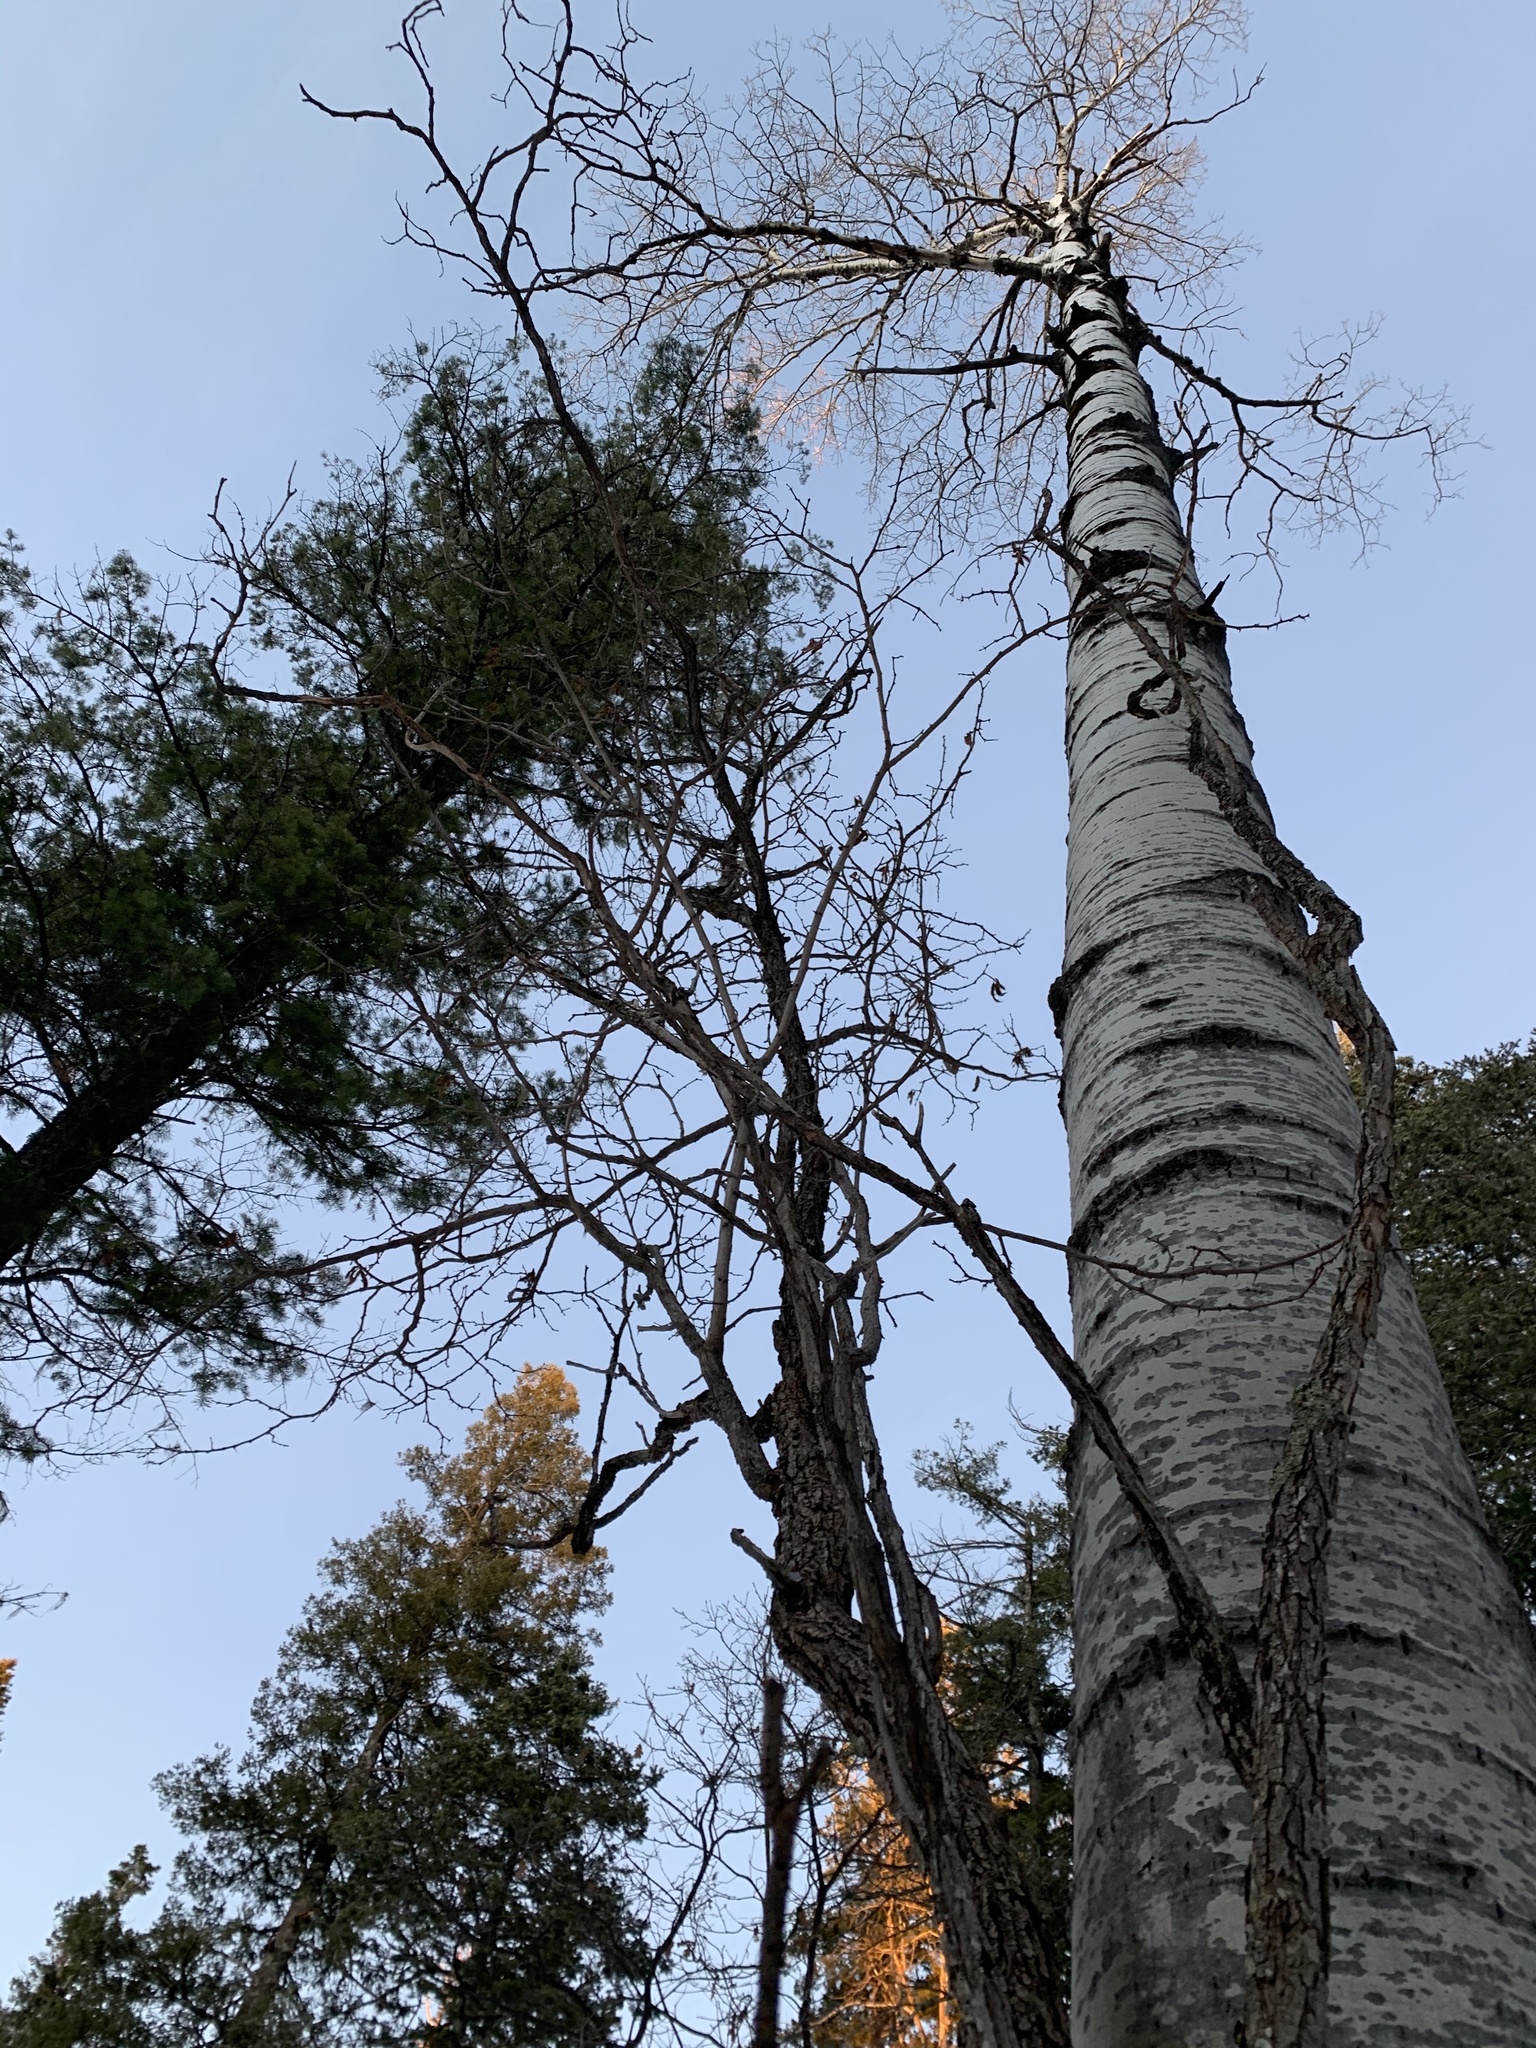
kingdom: Plantae
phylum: Tracheophyta
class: Magnoliopsida
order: Fabales
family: Fabaceae
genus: Robinia
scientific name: Robinia neomexicana
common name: New mexico locust
